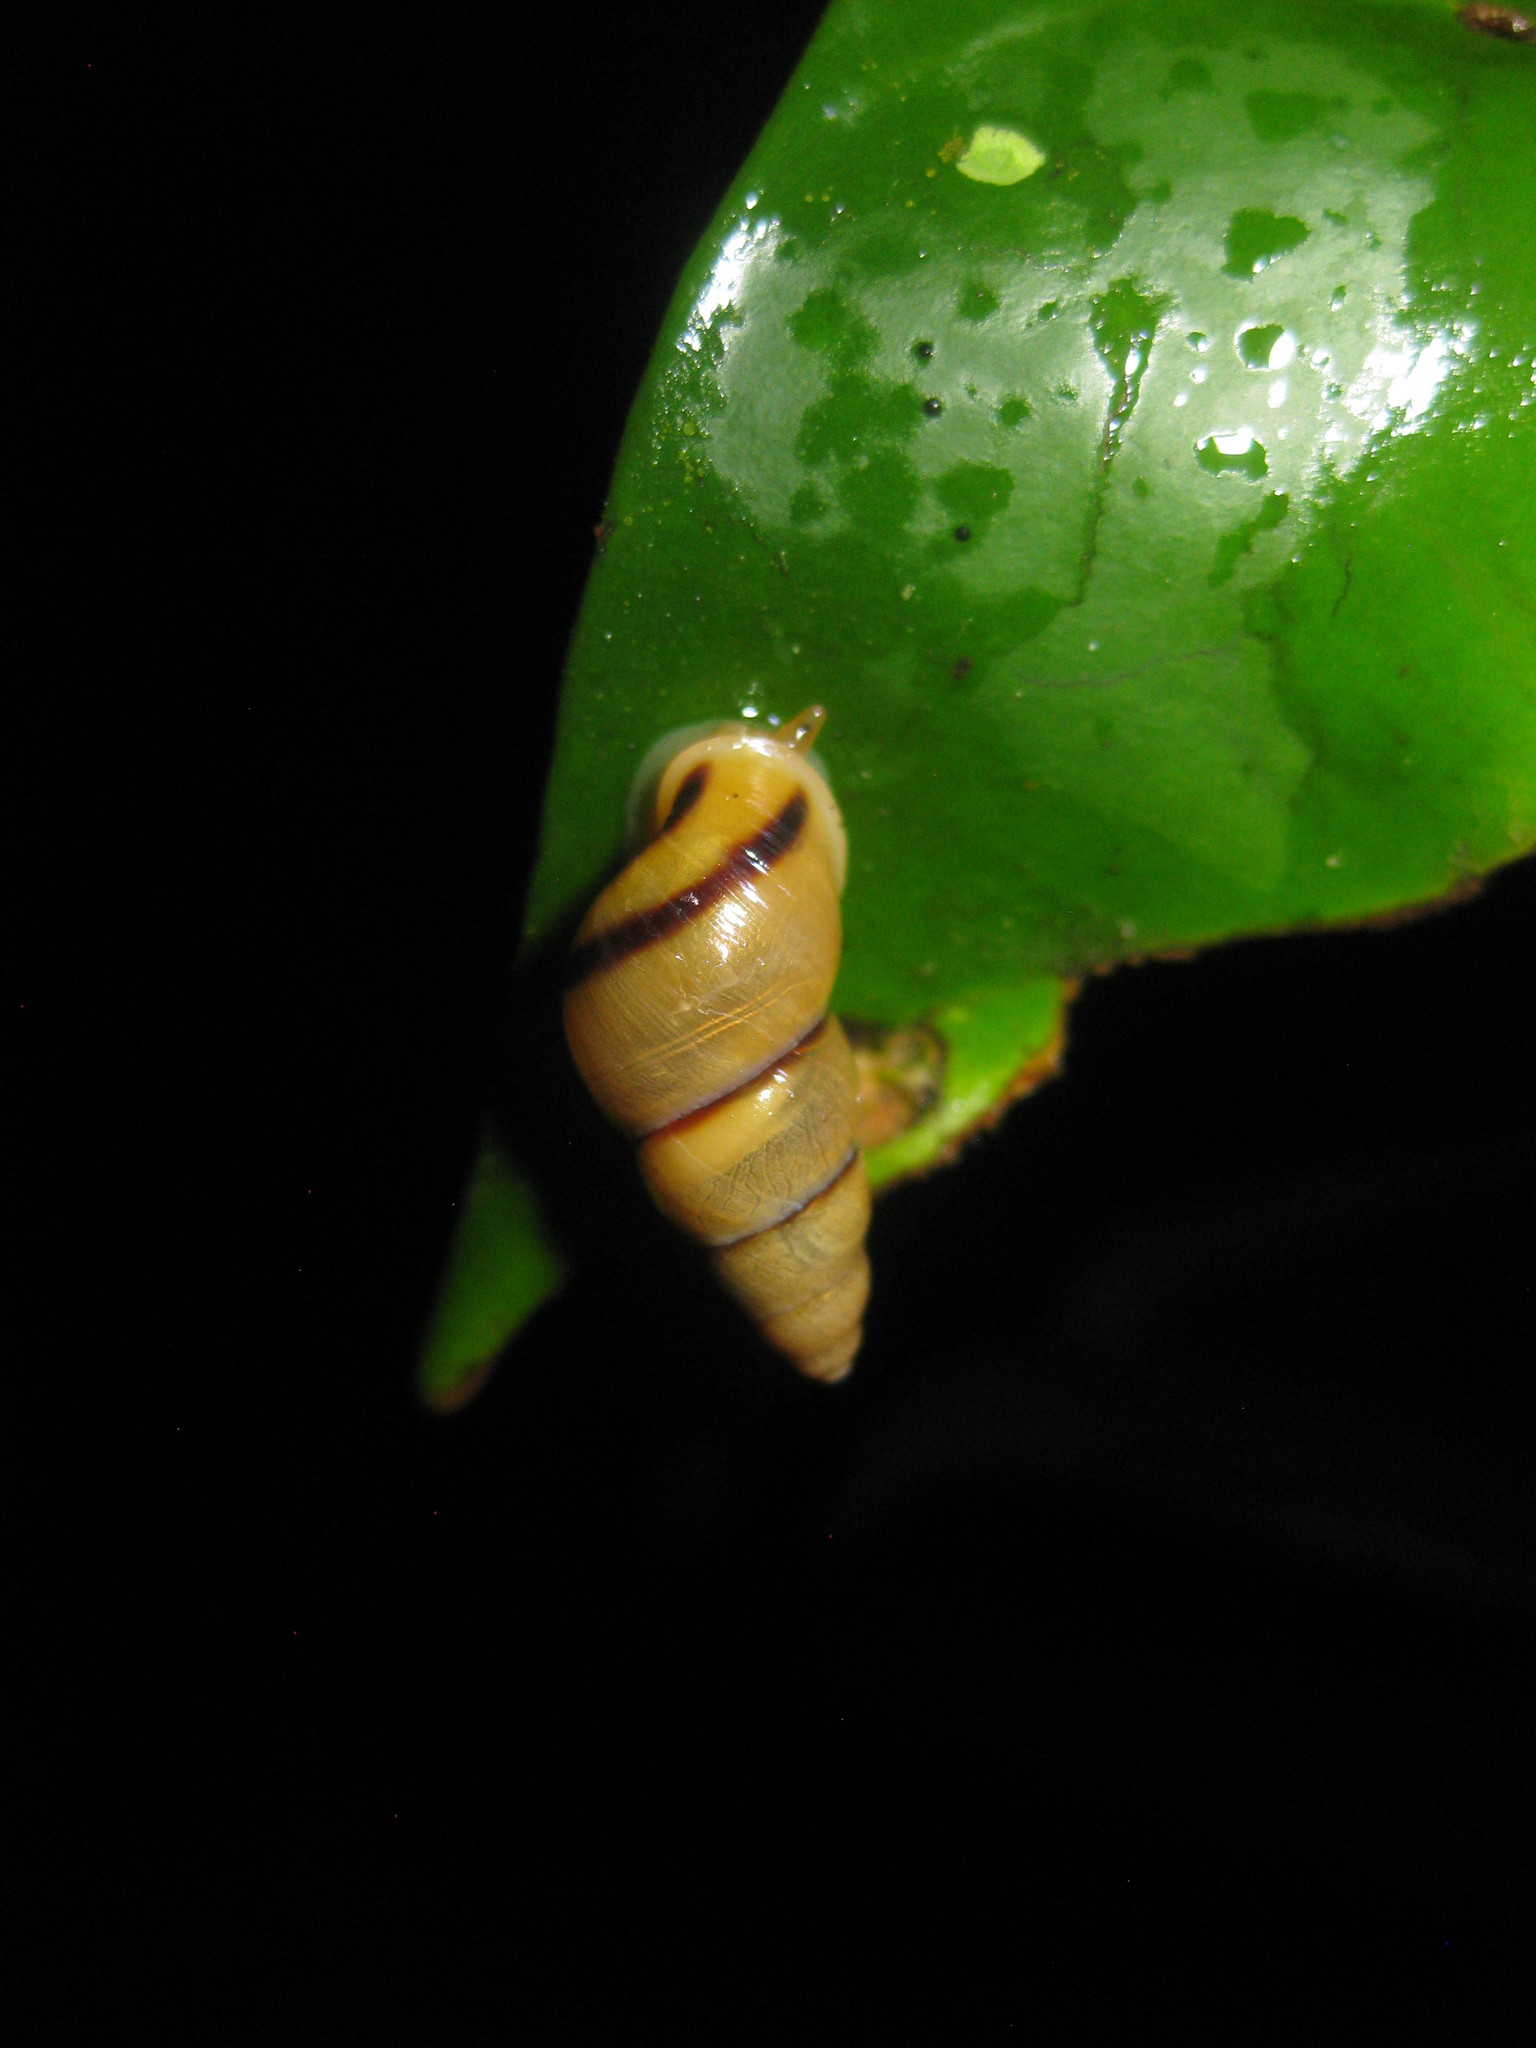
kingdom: Animalia
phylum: Mollusca
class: Gastropoda
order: Stylommatophora
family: Bulimulidae
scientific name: Bulimulidae
